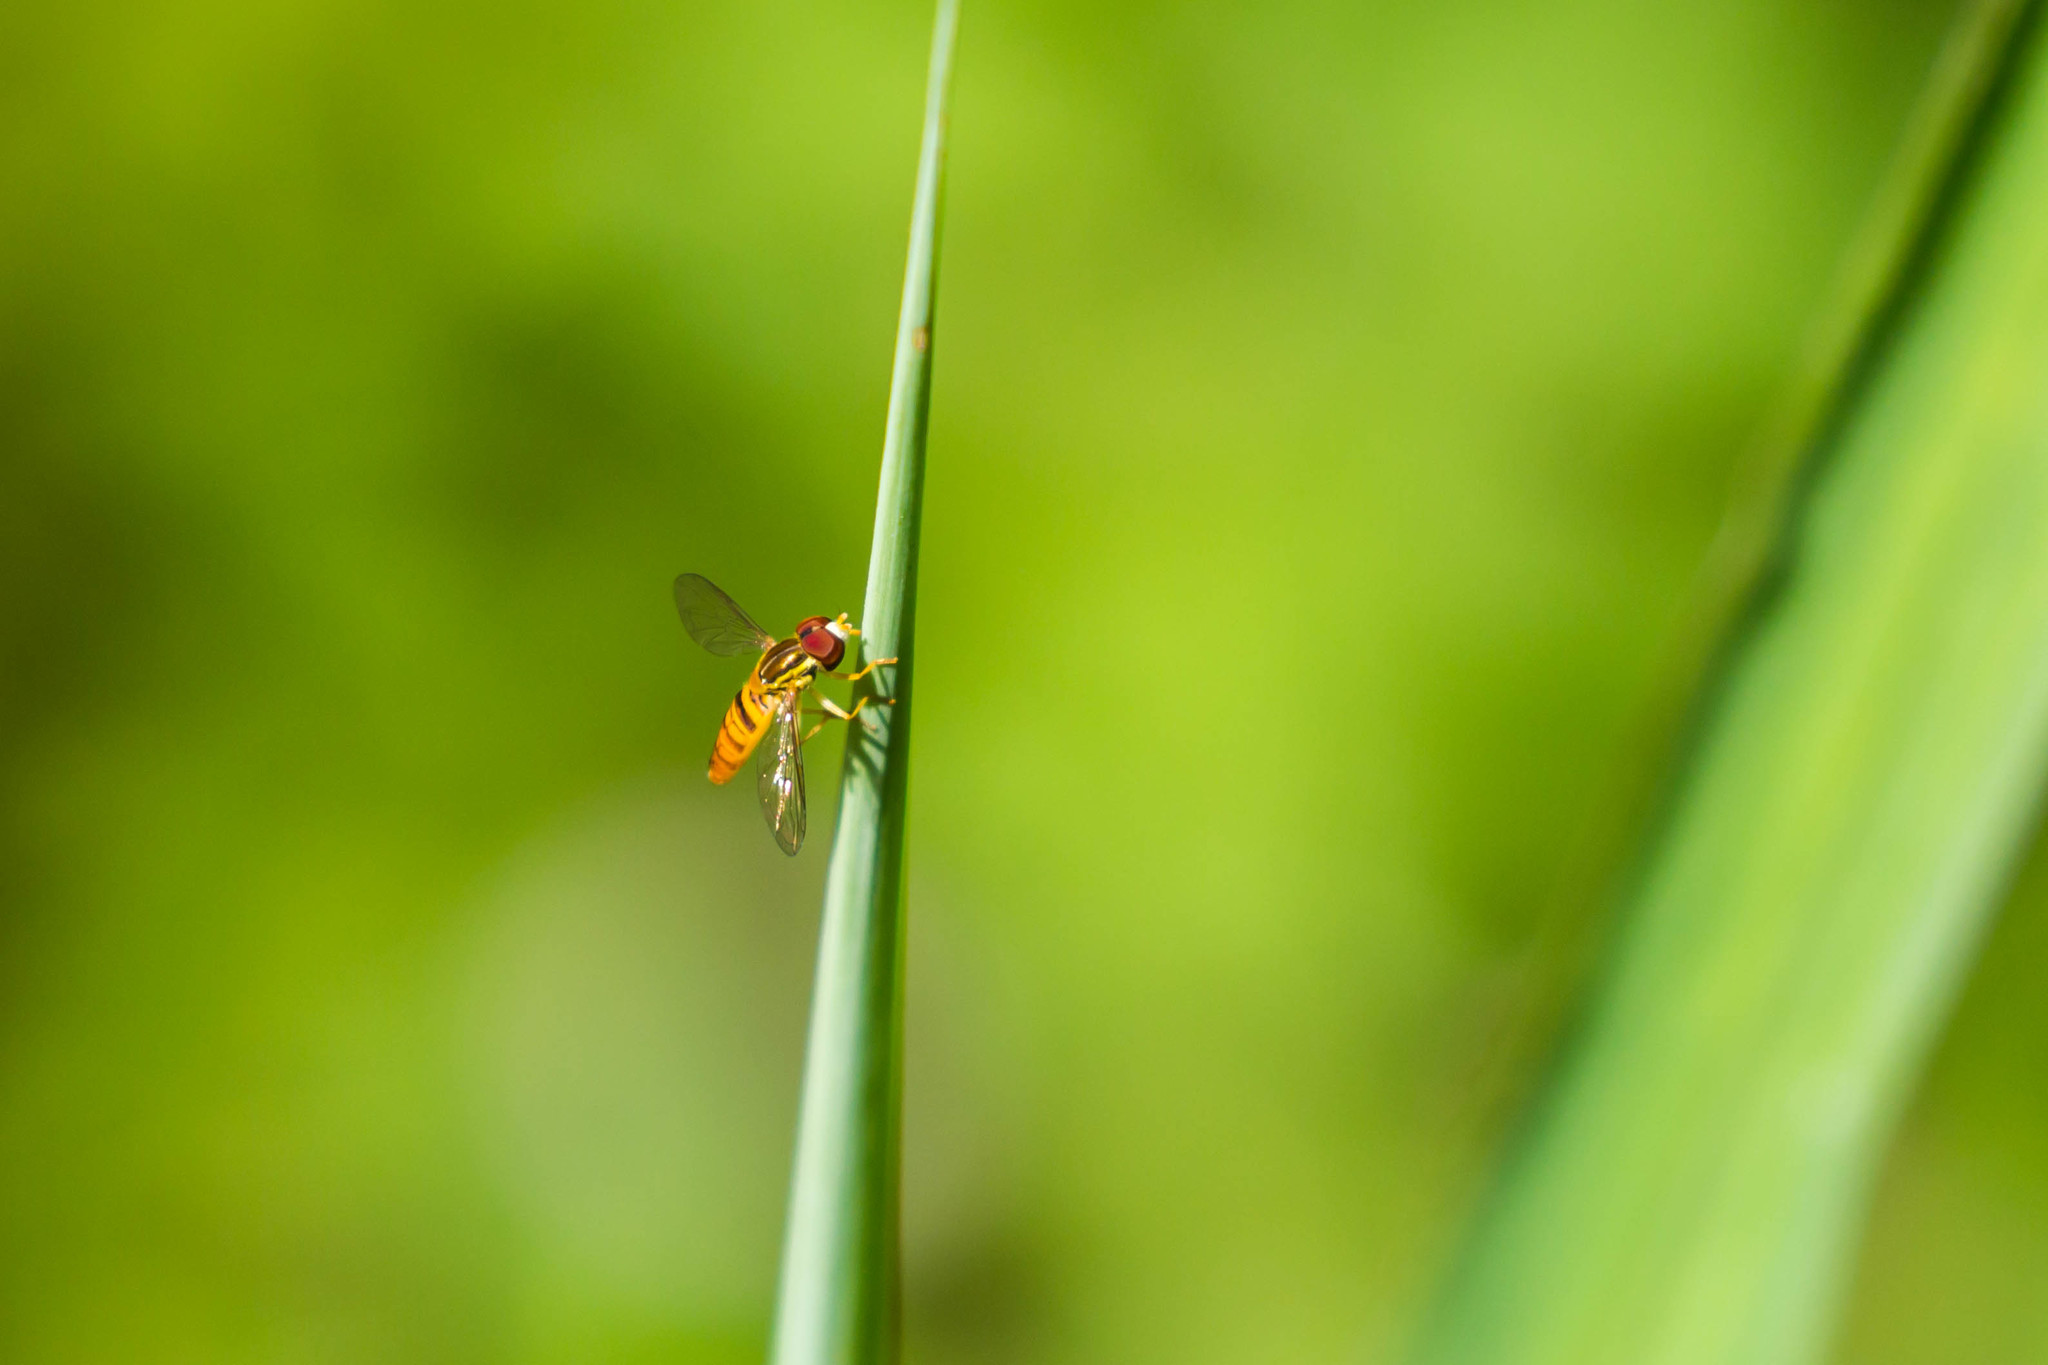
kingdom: Animalia
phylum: Arthropoda
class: Insecta
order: Diptera
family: Syrphidae
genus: Toxomerus
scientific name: Toxomerus politus
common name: Maize calligrapher
